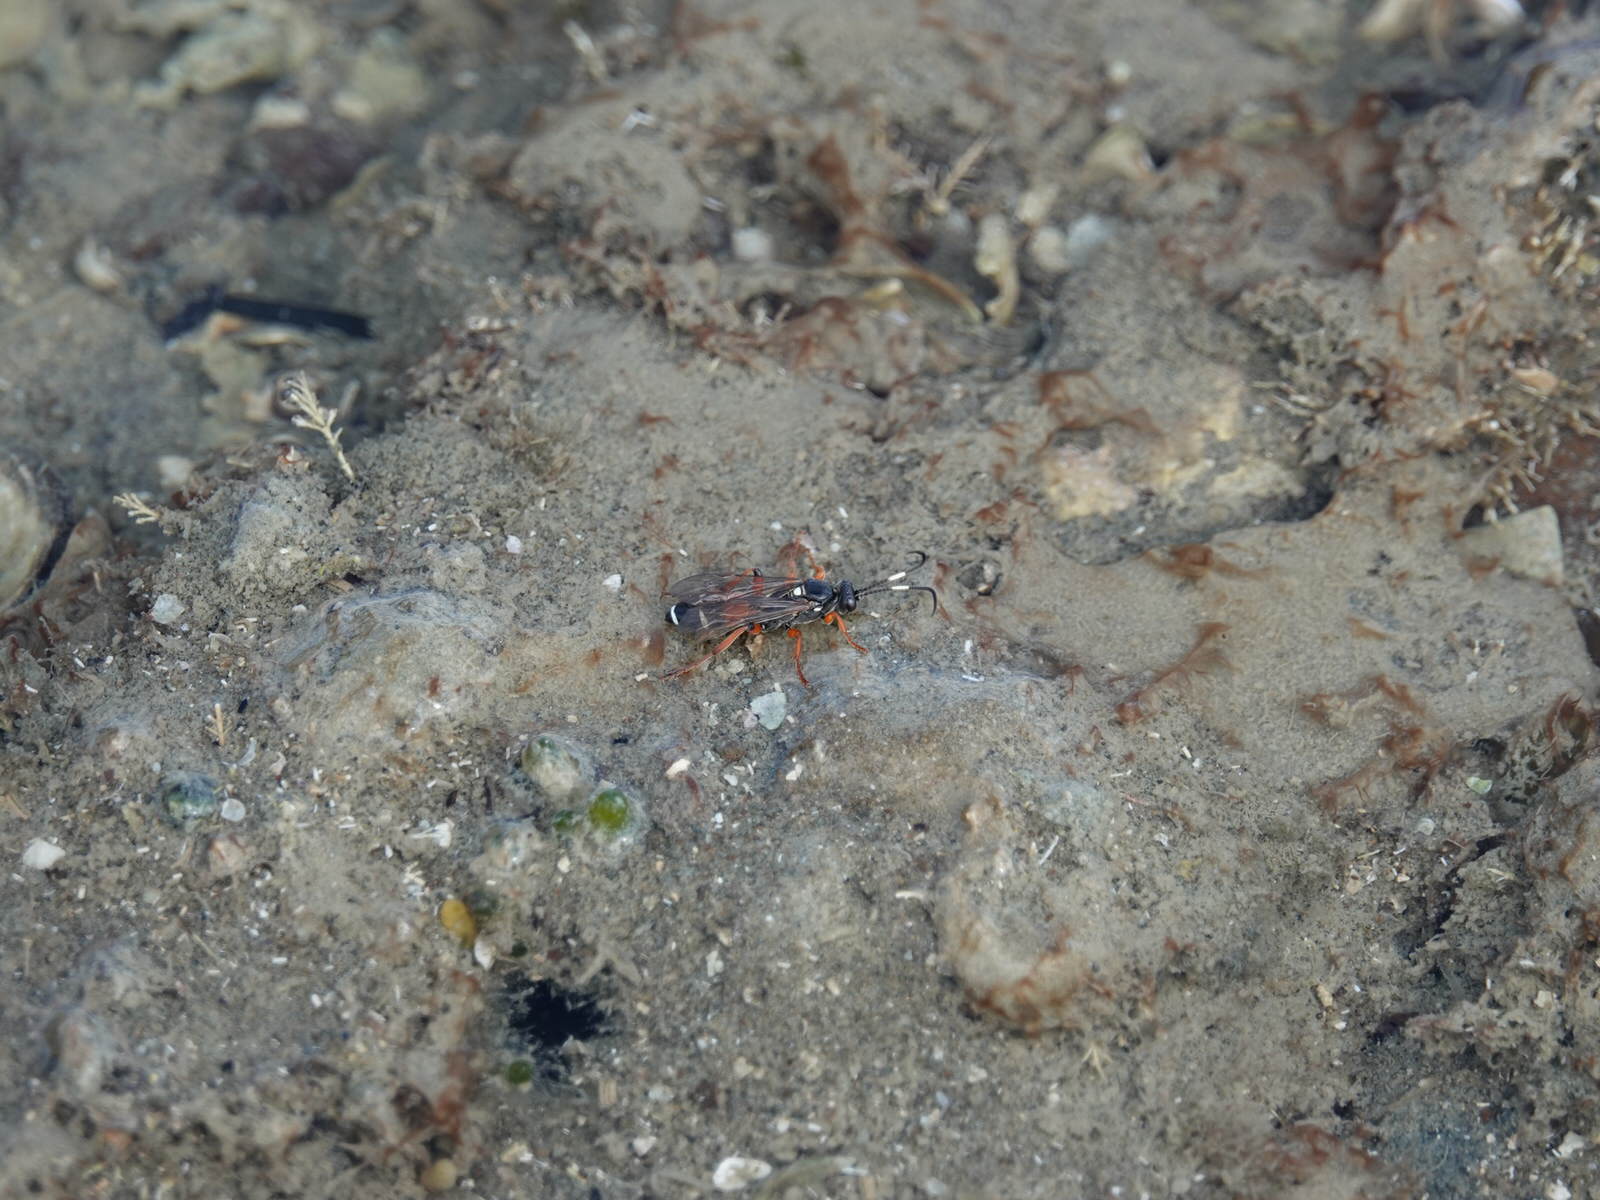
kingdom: Animalia
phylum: Arthropoda
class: Insecta
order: Hymenoptera
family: Ichneumonidae
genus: Ichneumon
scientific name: Ichneumon promissorius
